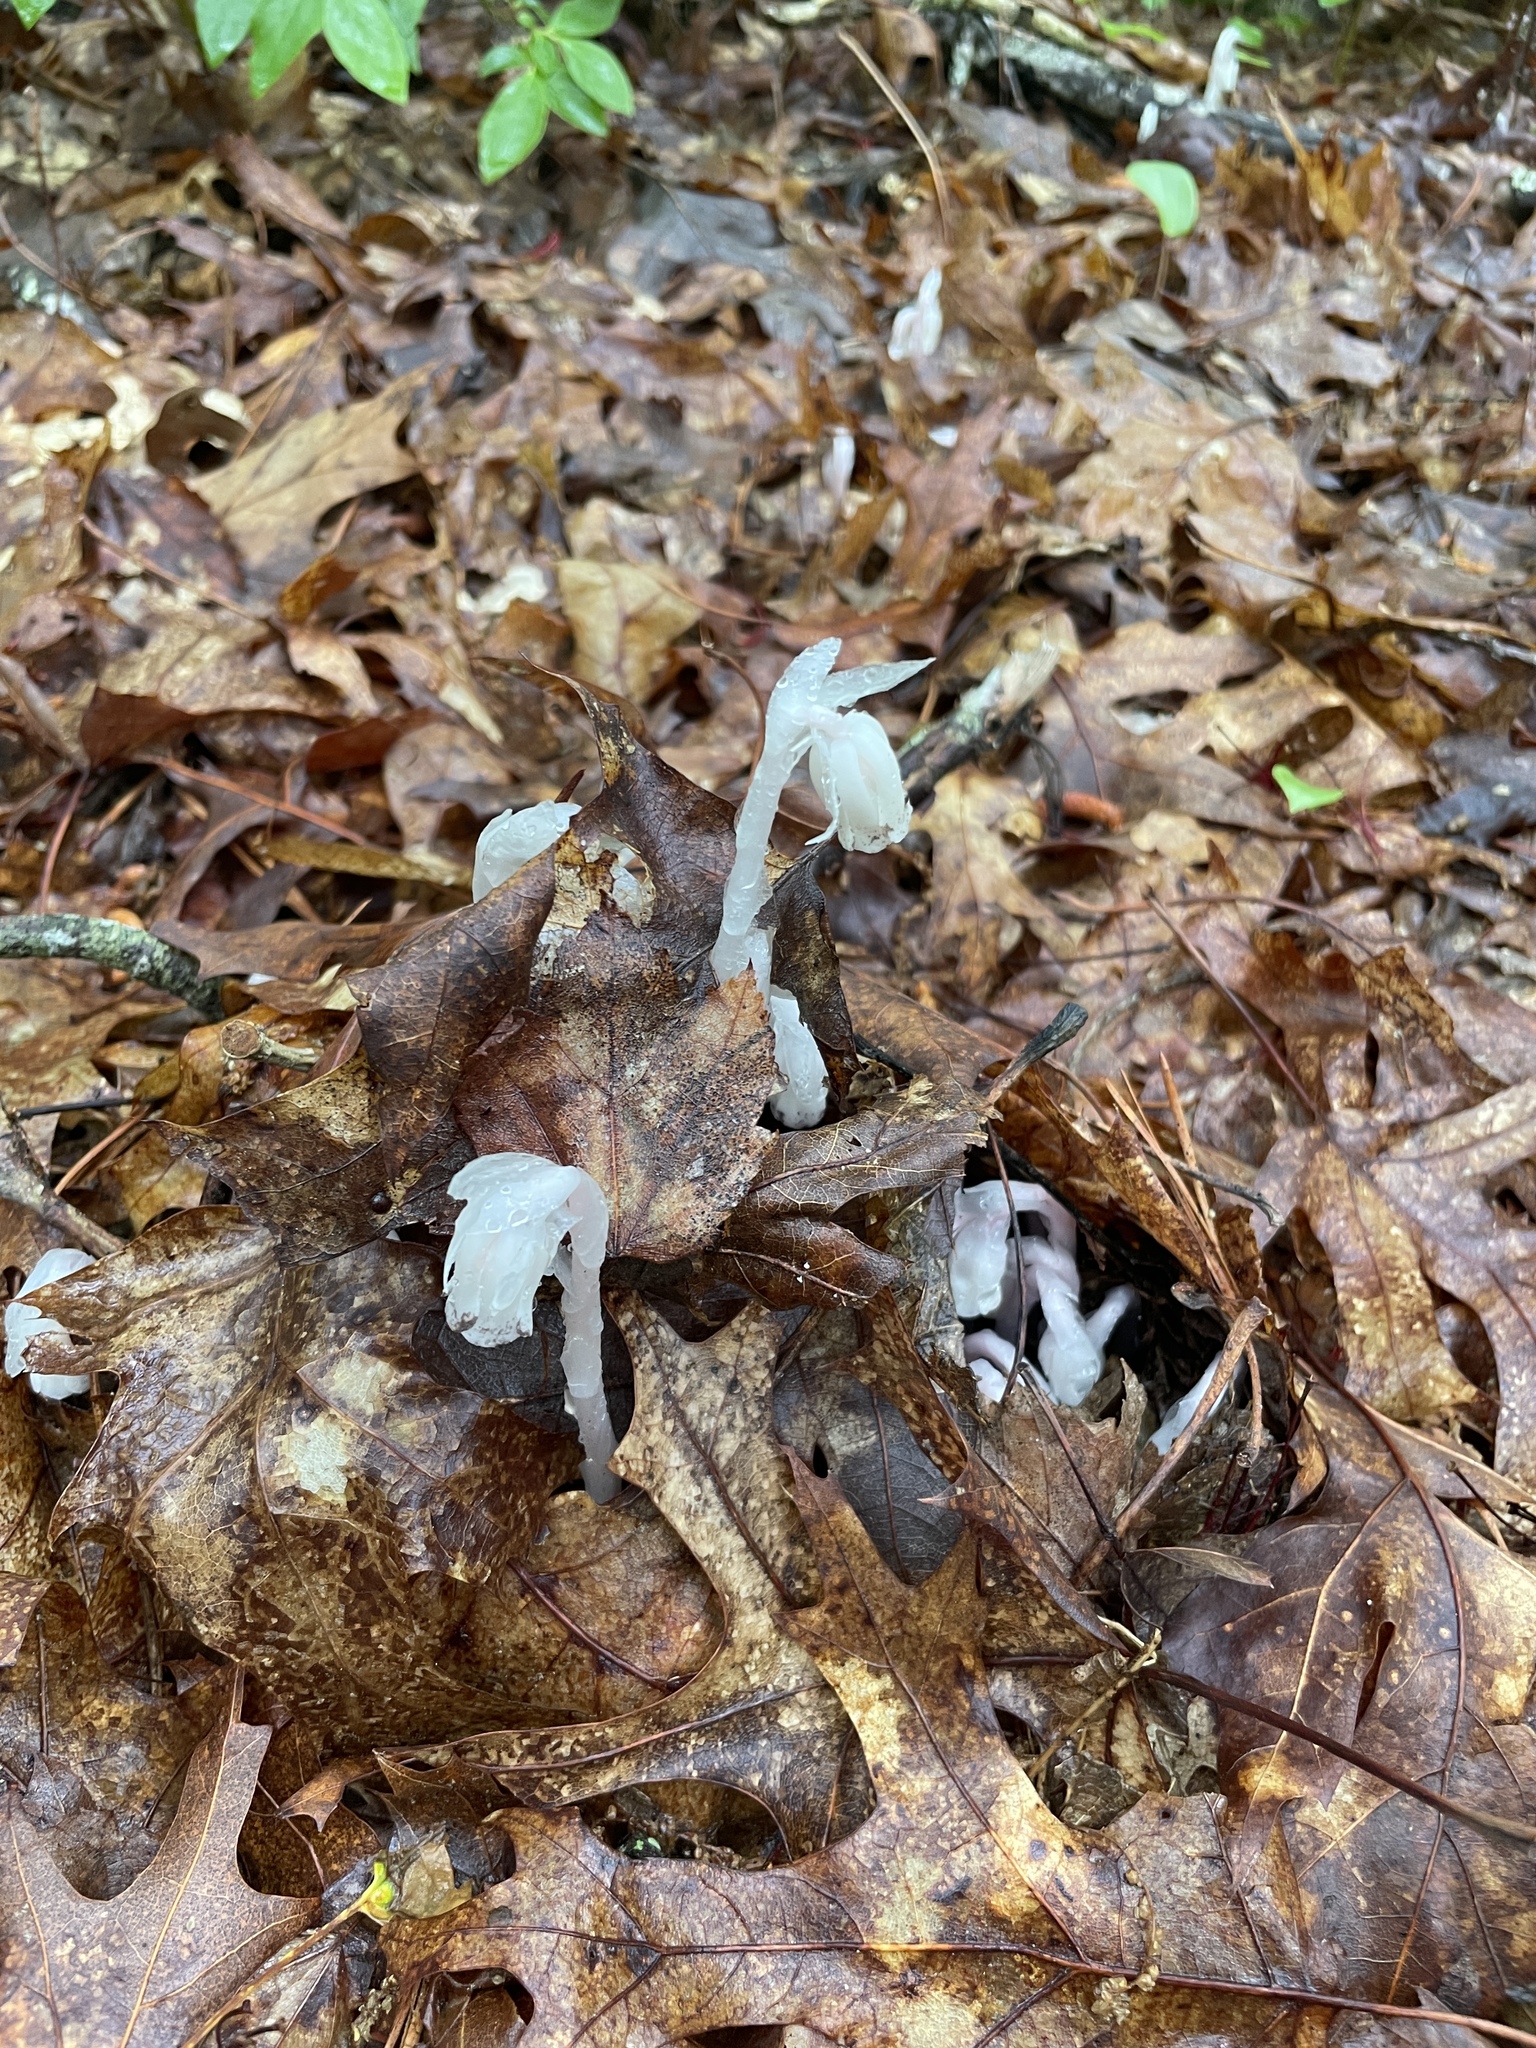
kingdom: Plantae
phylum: Tracheophyta
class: Magnoliopsida
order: Ericales
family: Ericaceae
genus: Monotropa
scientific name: Monotropa uniflora
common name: Convulsion root
